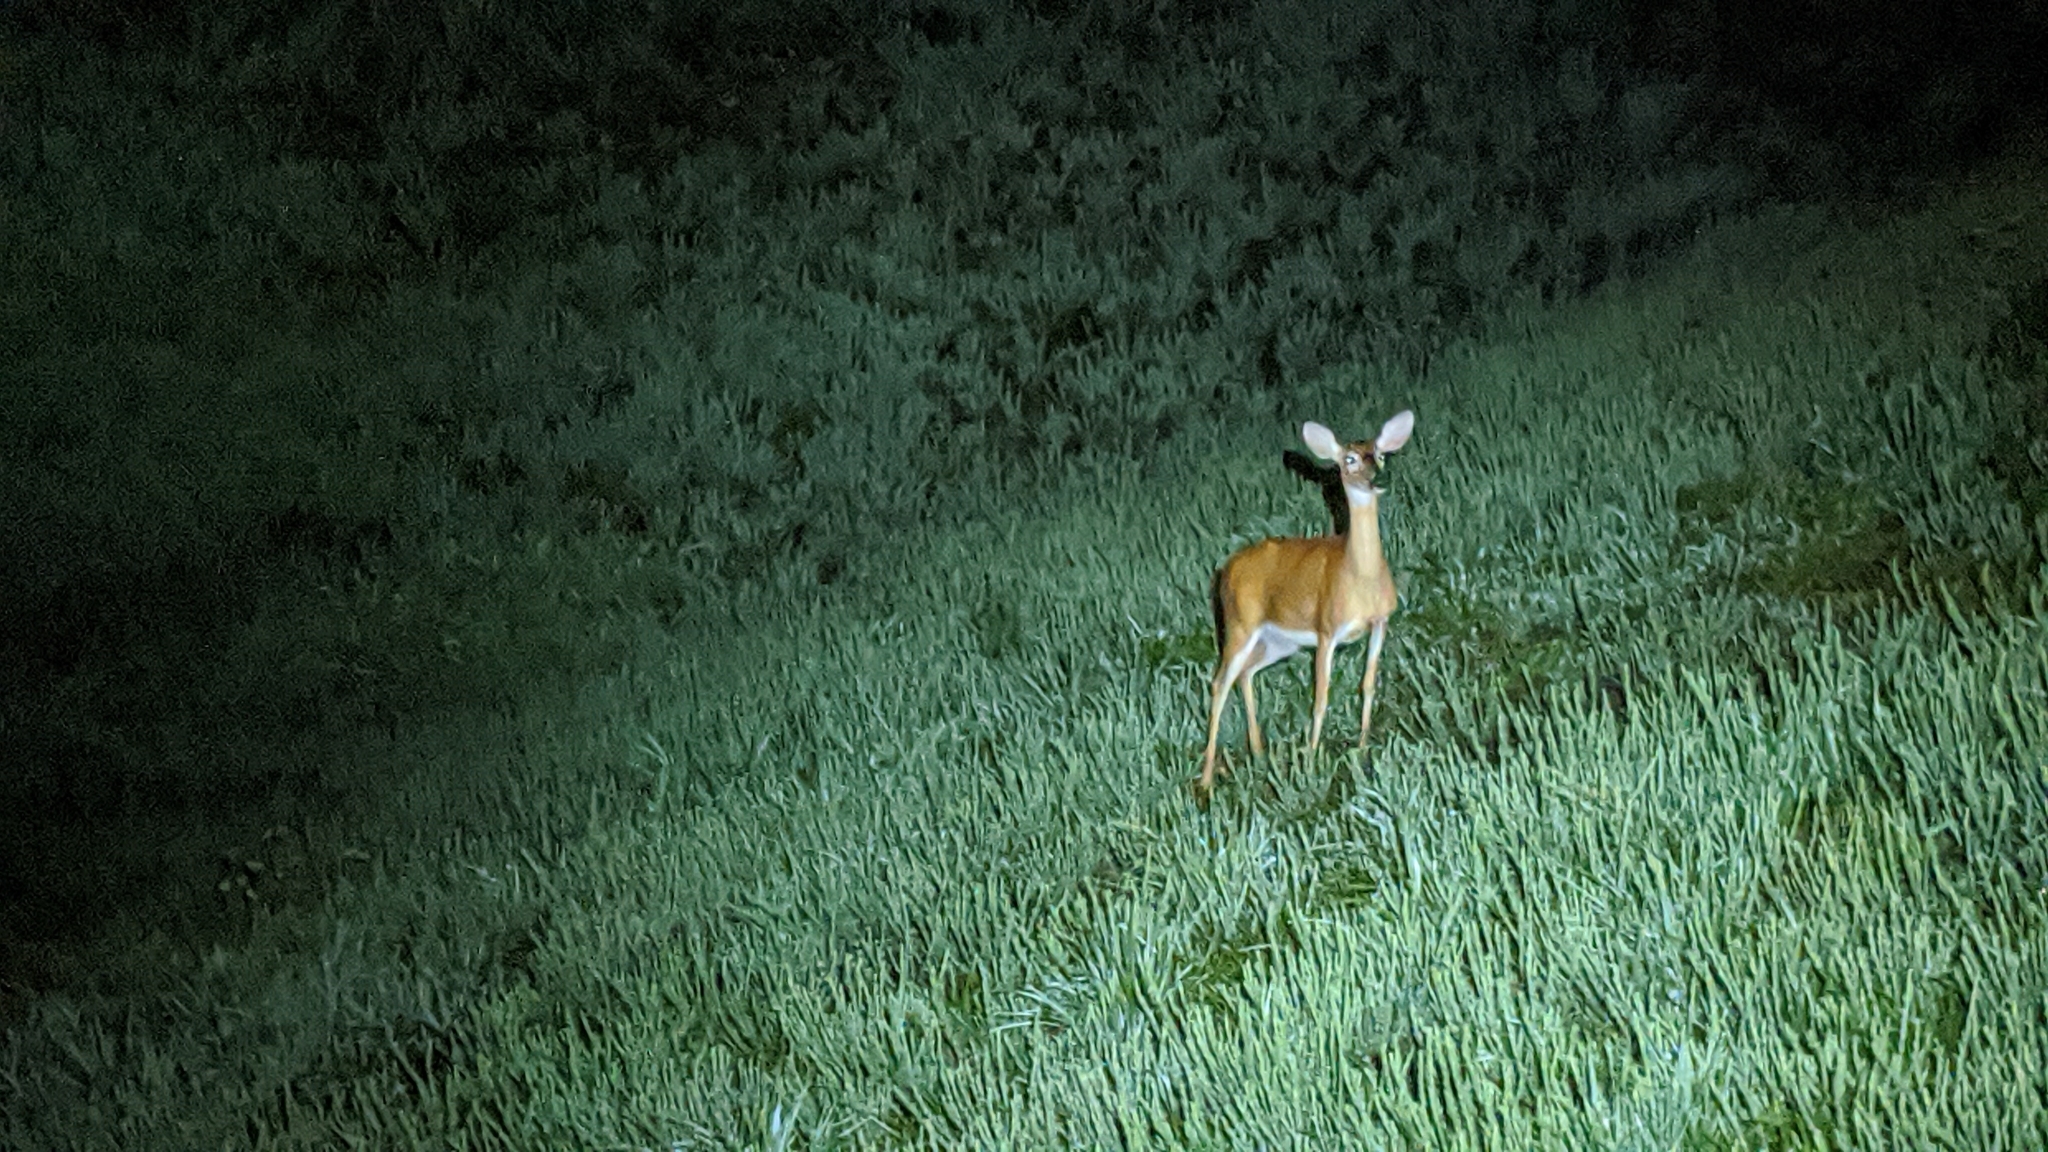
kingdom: Animalia
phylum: Chordata
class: Mammalia
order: Artiodactyla
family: Cervidae
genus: Odocoileus
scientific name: Odocoileus virginianus
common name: White-tailed deer
